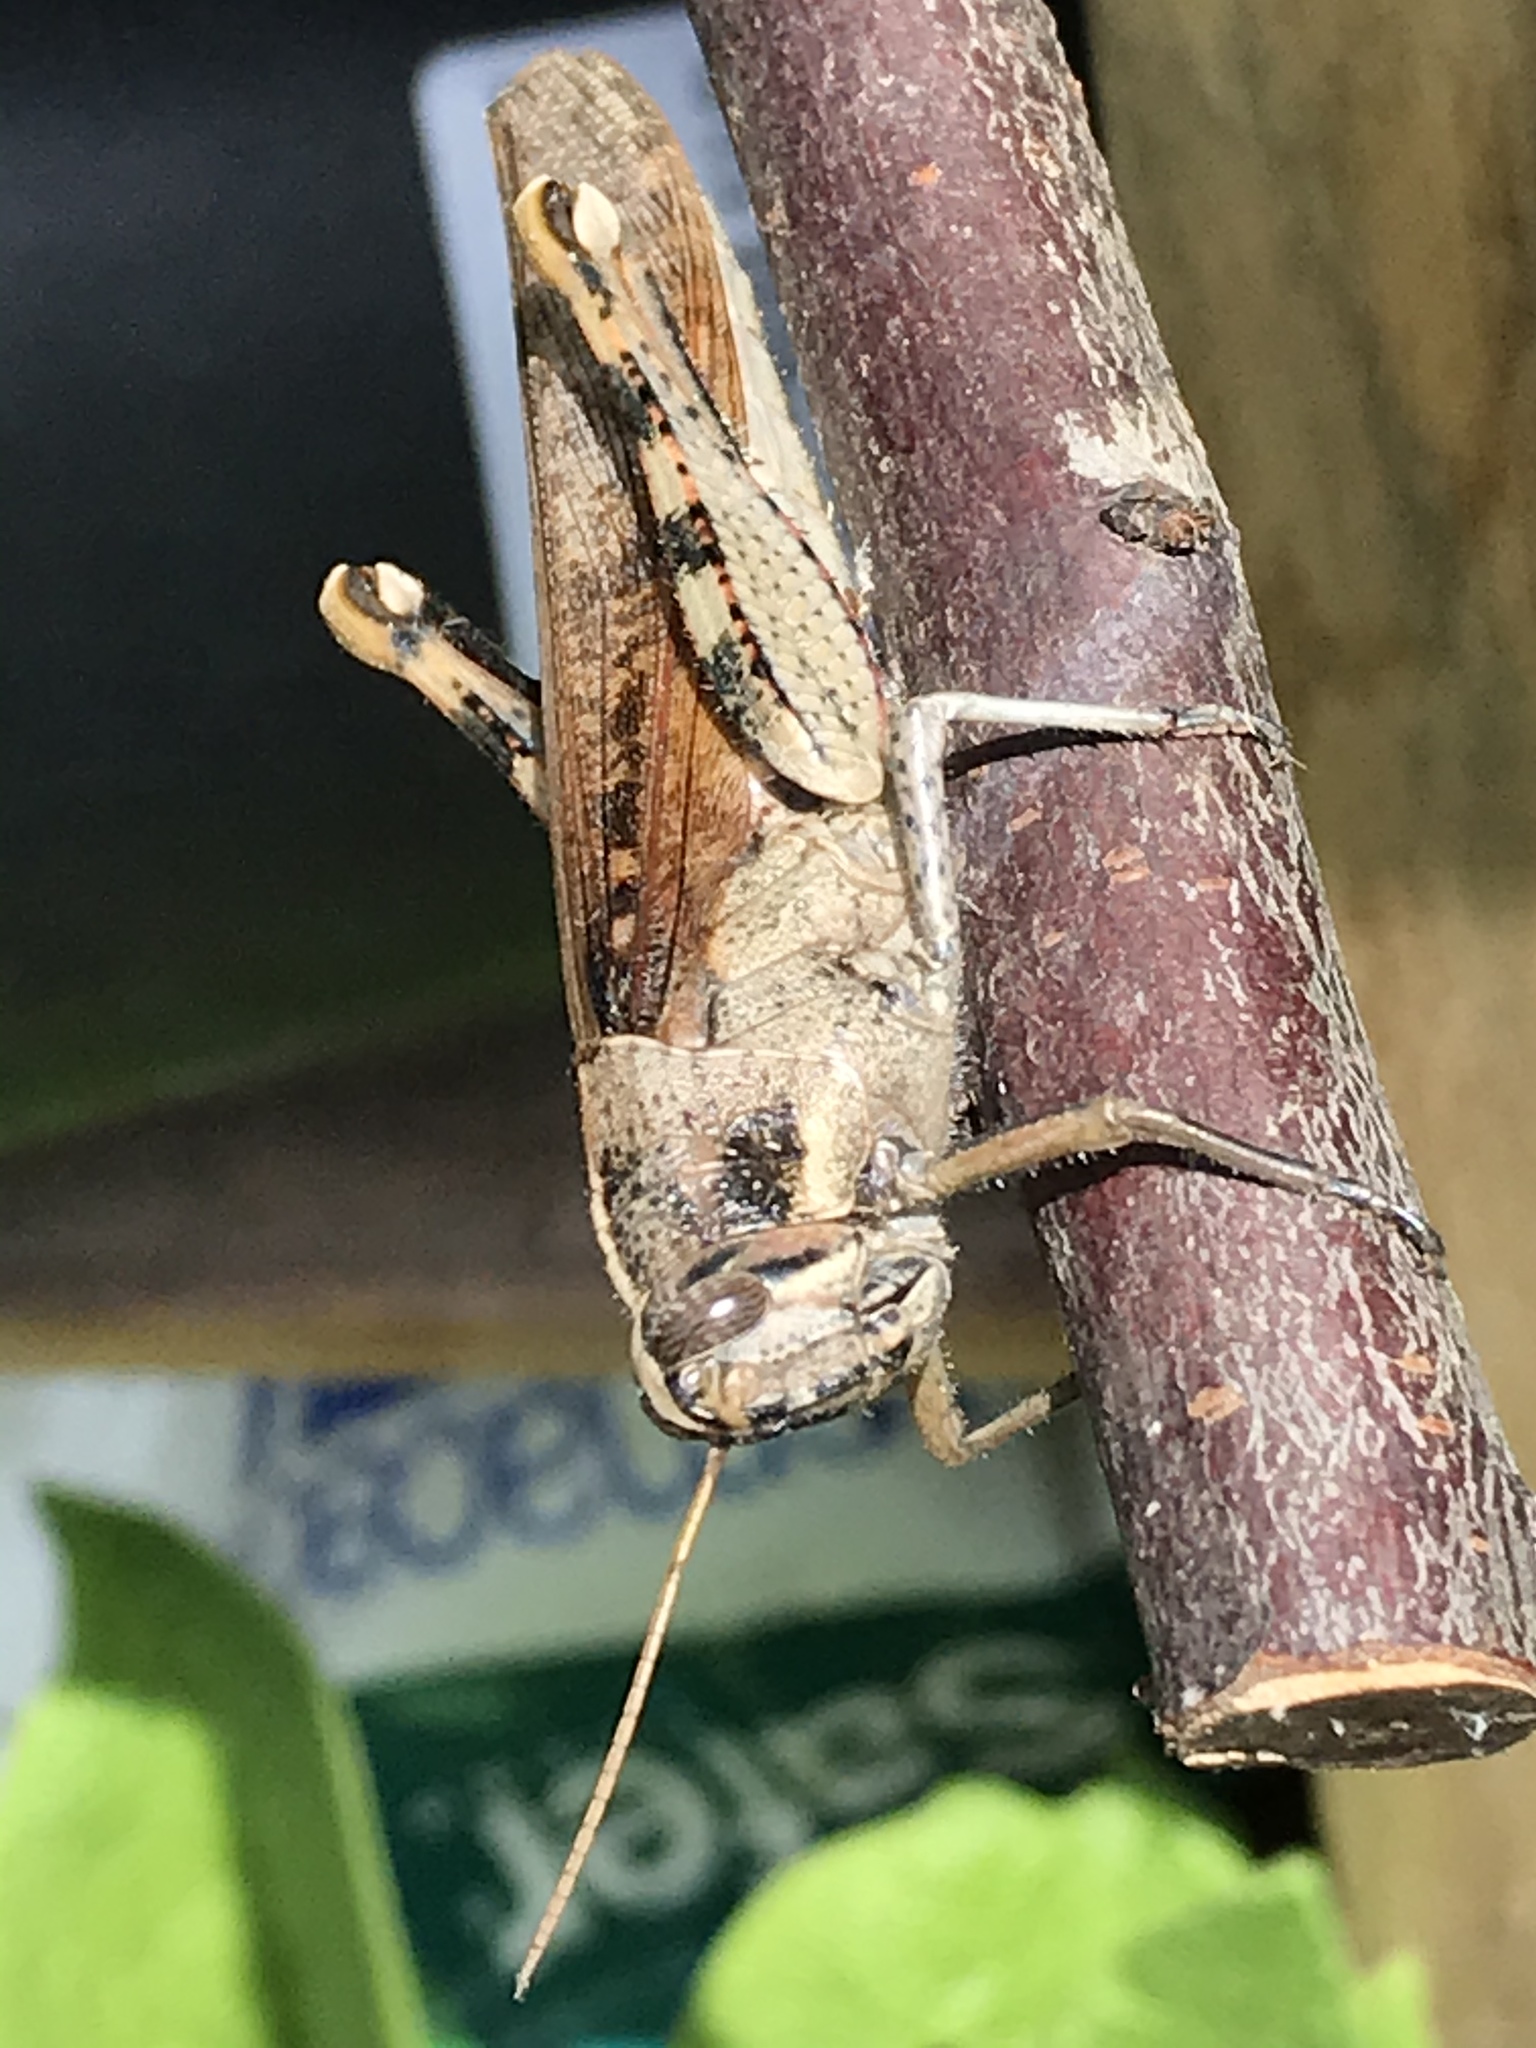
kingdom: Animalia
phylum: Arthropoda
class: Insecta
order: Orthoptera
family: Acrididae
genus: Schistocerca
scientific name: Schistocerca nitens
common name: Vagrant grasshopper
